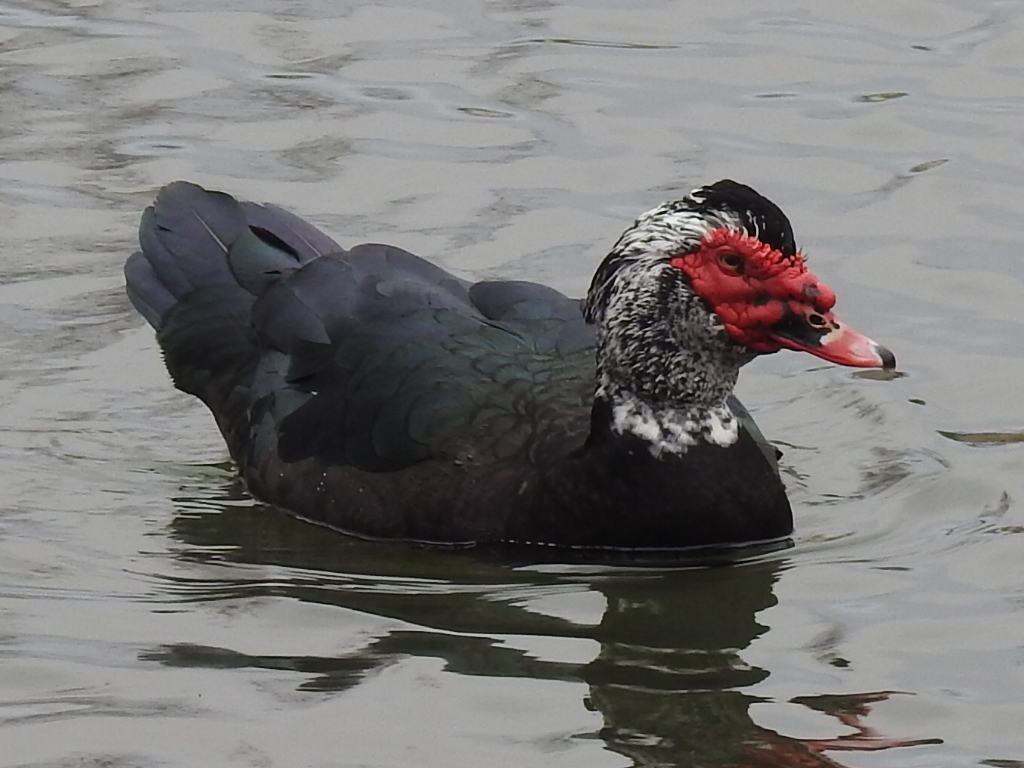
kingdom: Animalia
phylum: Chordata
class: Aves
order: Anseriformes
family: Anatidae
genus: Cairina
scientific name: Cairina moschata
